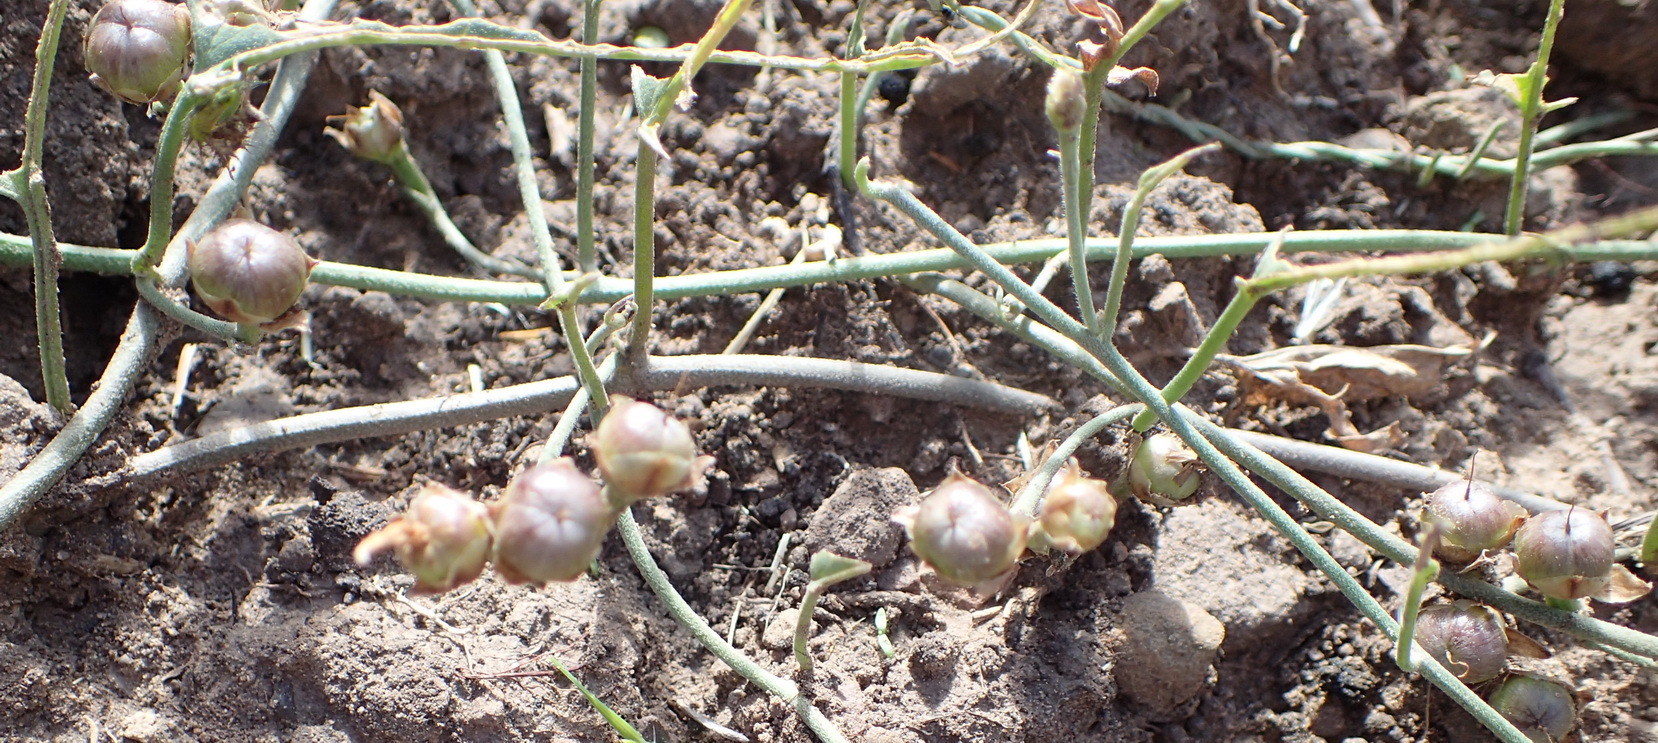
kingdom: Plantae
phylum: Tracheophyta
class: Magnoliopsida
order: Solanales
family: Convolvulaceae
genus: Convolvulus
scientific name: Convolvulus aschersonii
